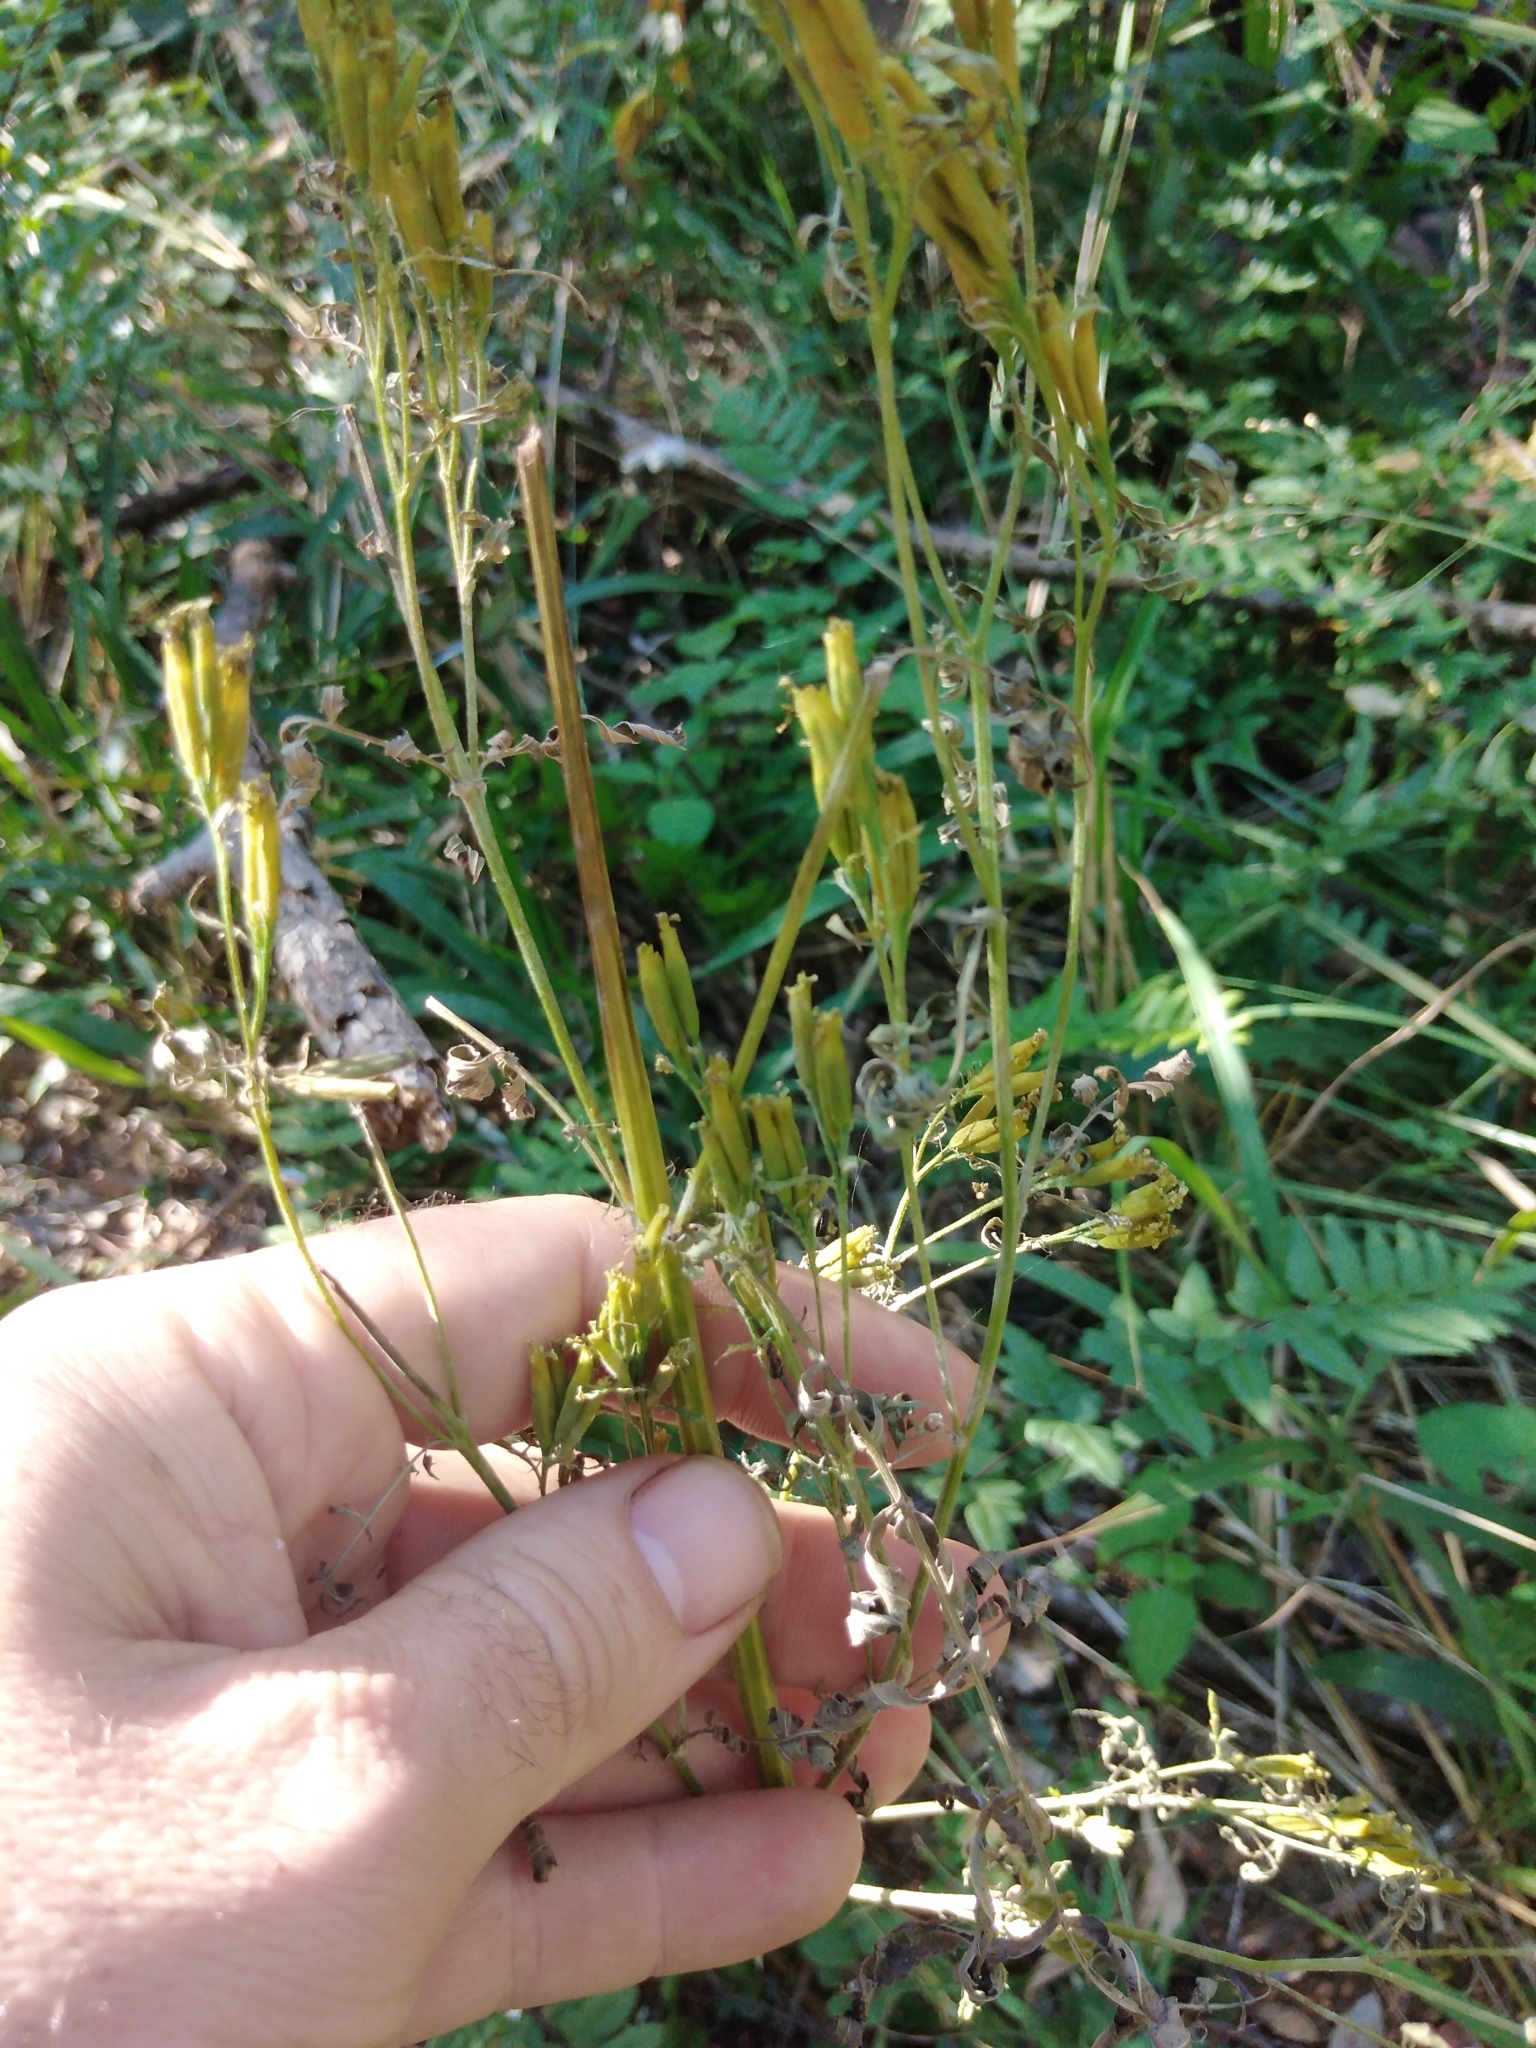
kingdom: Plantae
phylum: Tracheophyta
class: Magnoliopsida
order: Asterales
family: Asteraceae
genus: Tagetes
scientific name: Tagetes minuta
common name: Muster john henry
